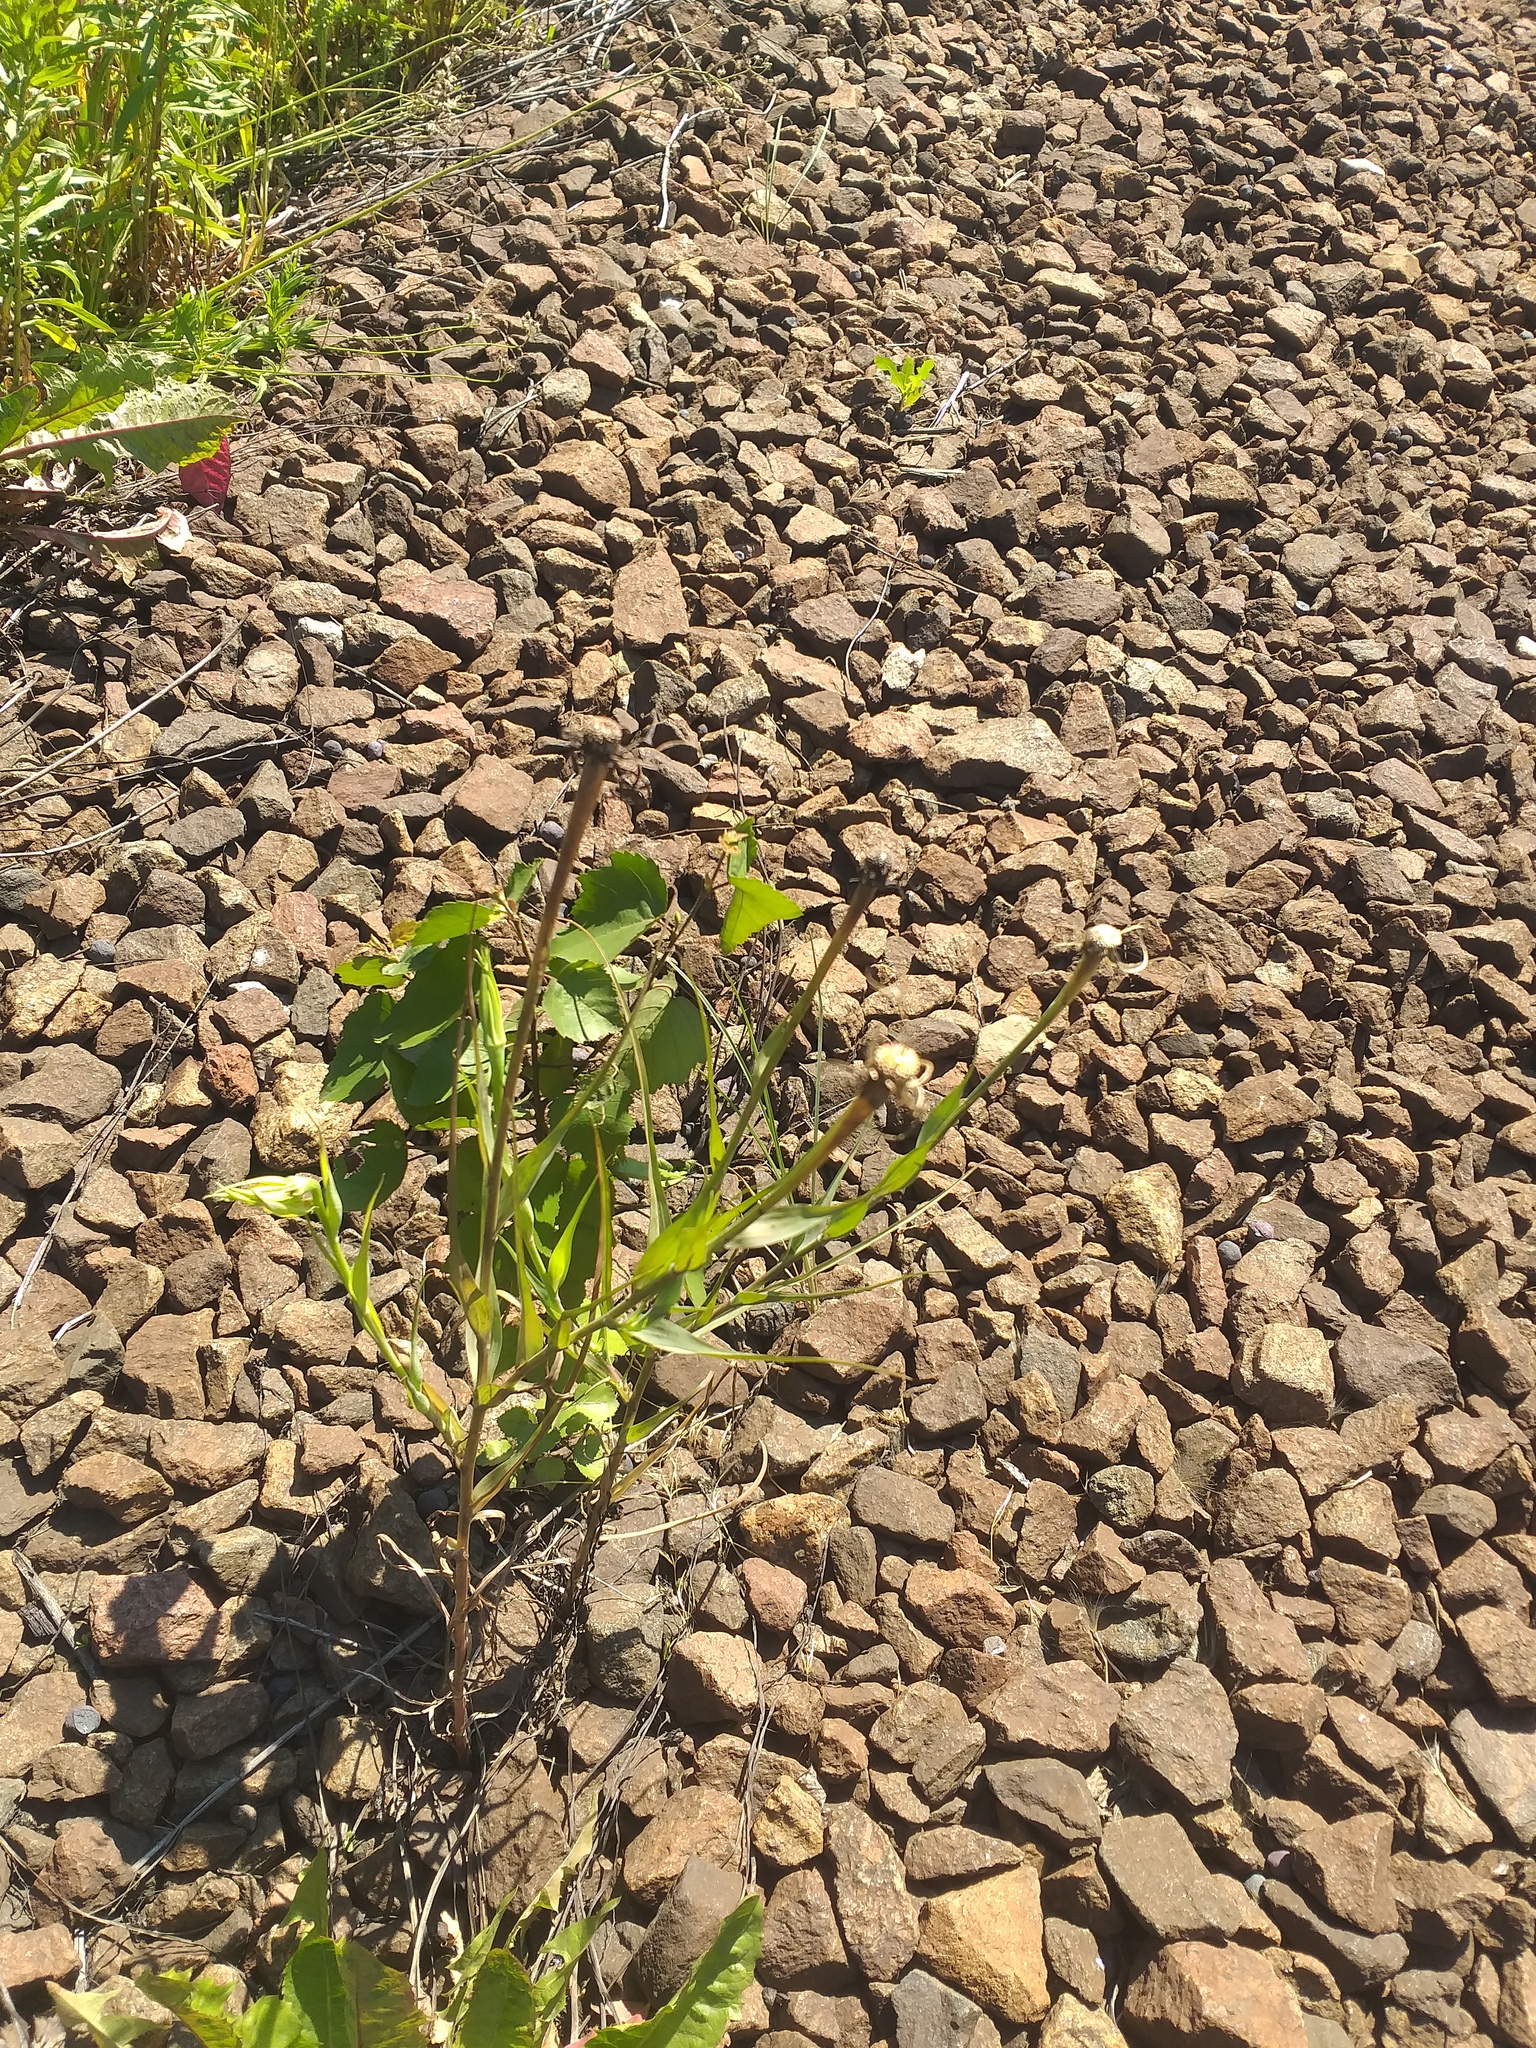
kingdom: Plantae
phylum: Tracheophyta
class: Magnoliopsida
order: Asterales
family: Asteraceae
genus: Tragopogon
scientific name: Tragopogon dubius
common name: Yellow salsify
